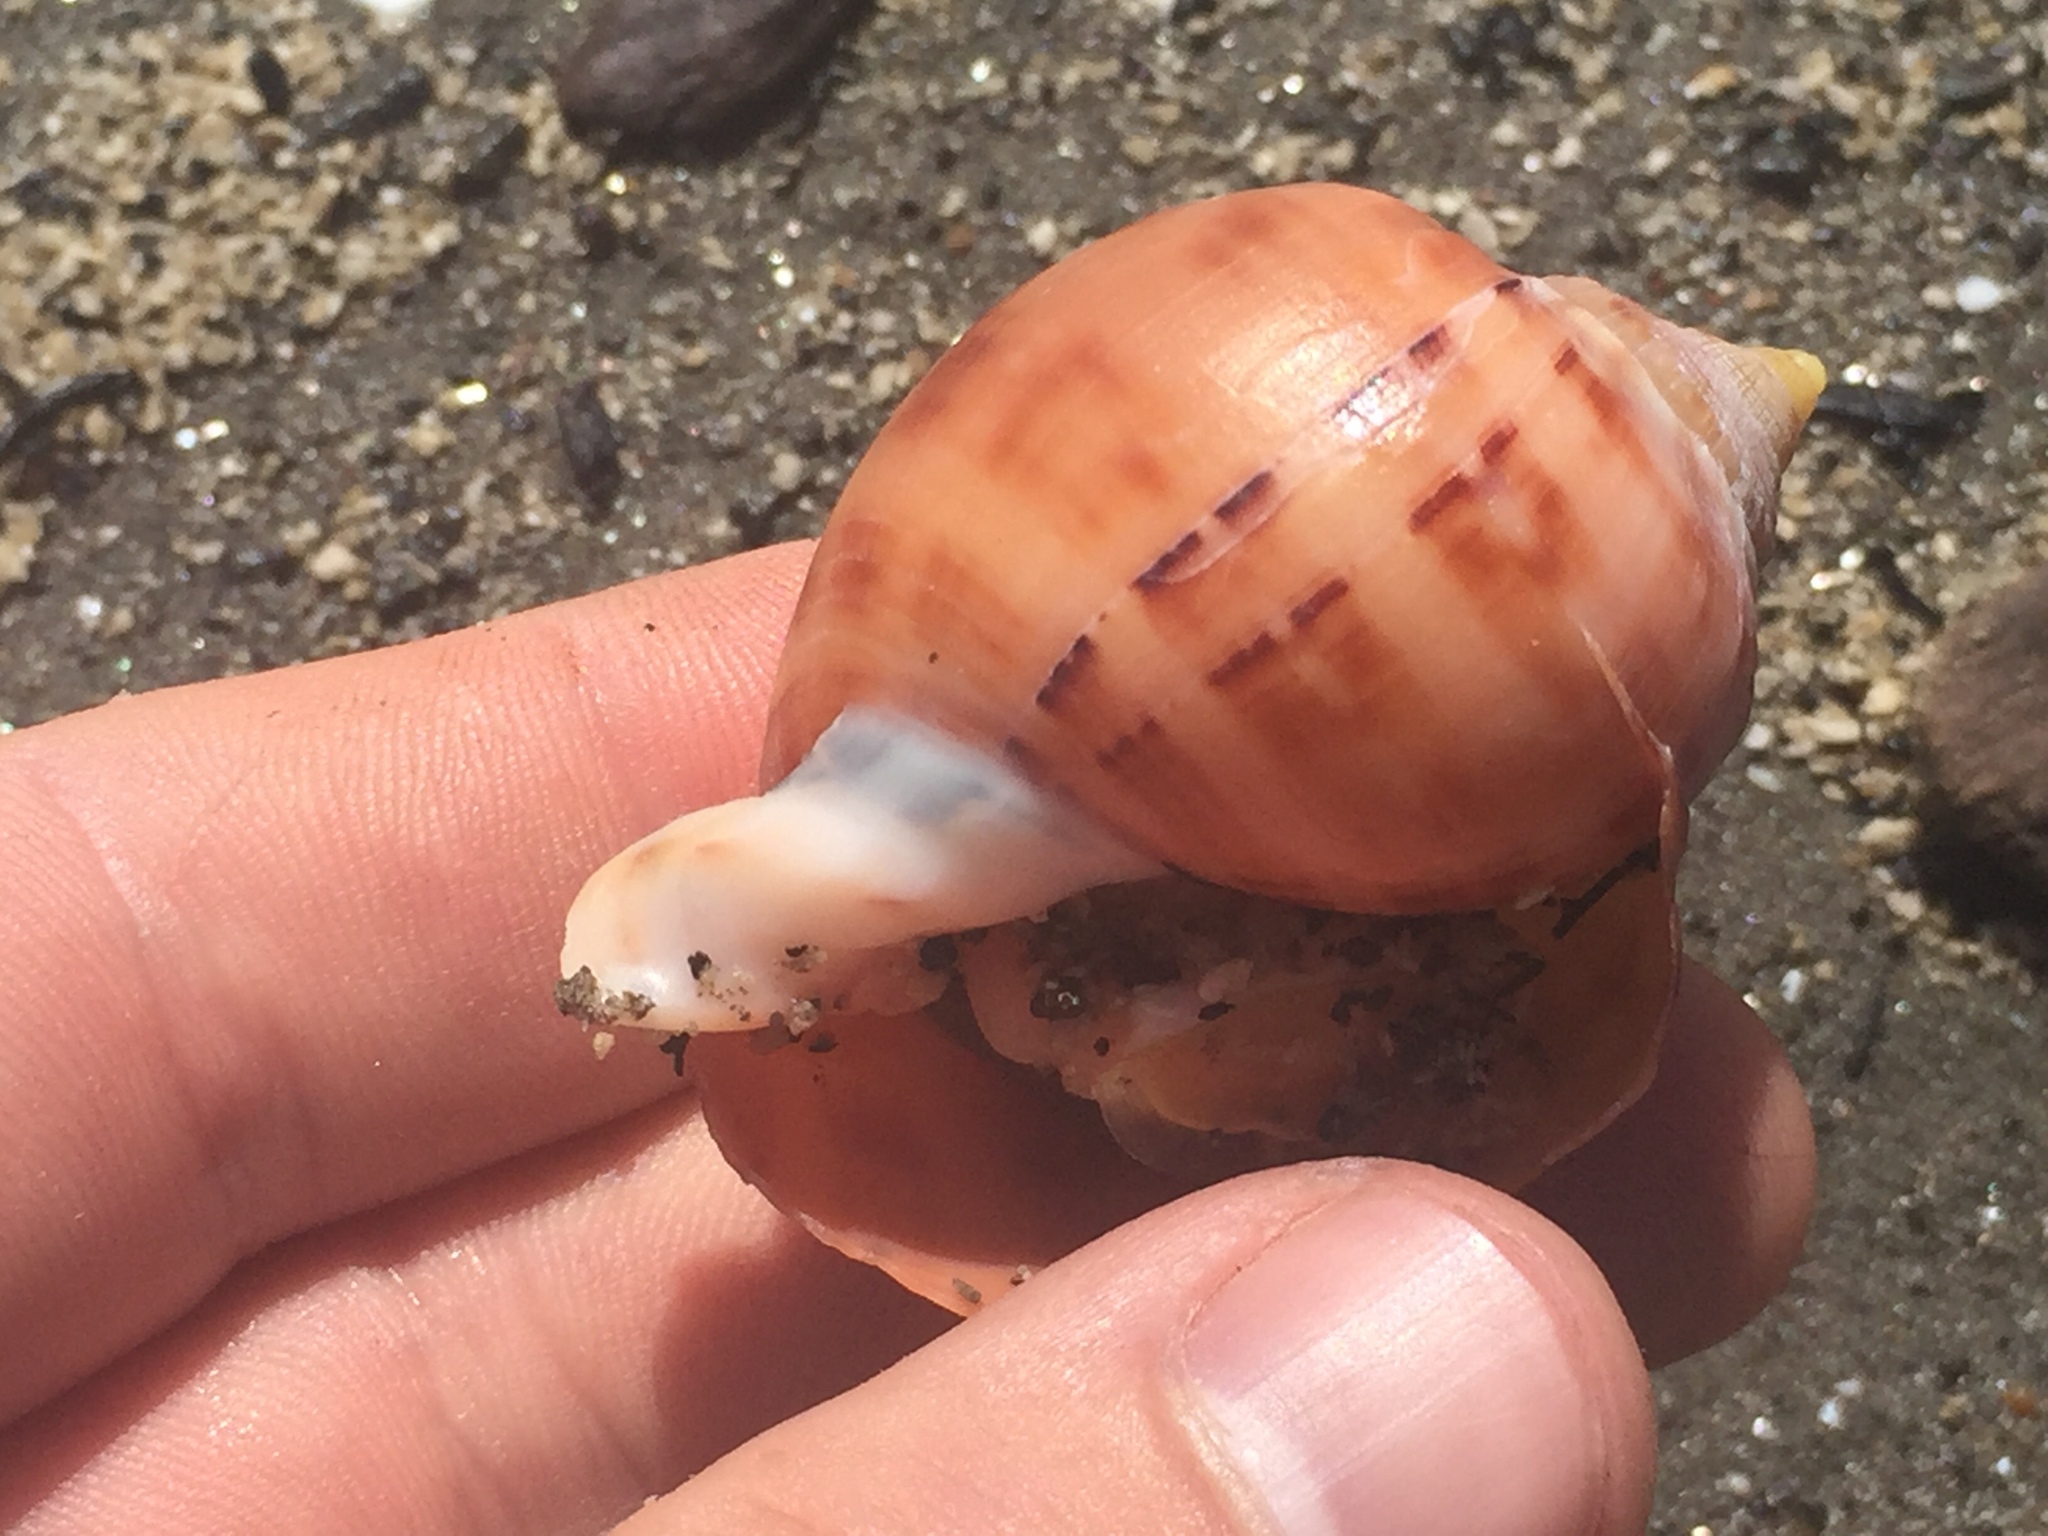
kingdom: Animalia
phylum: Mollusca
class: Gastropoda
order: Littorinimorpha
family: Cassidae
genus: Semicassis
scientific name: Semicassis pyrum
